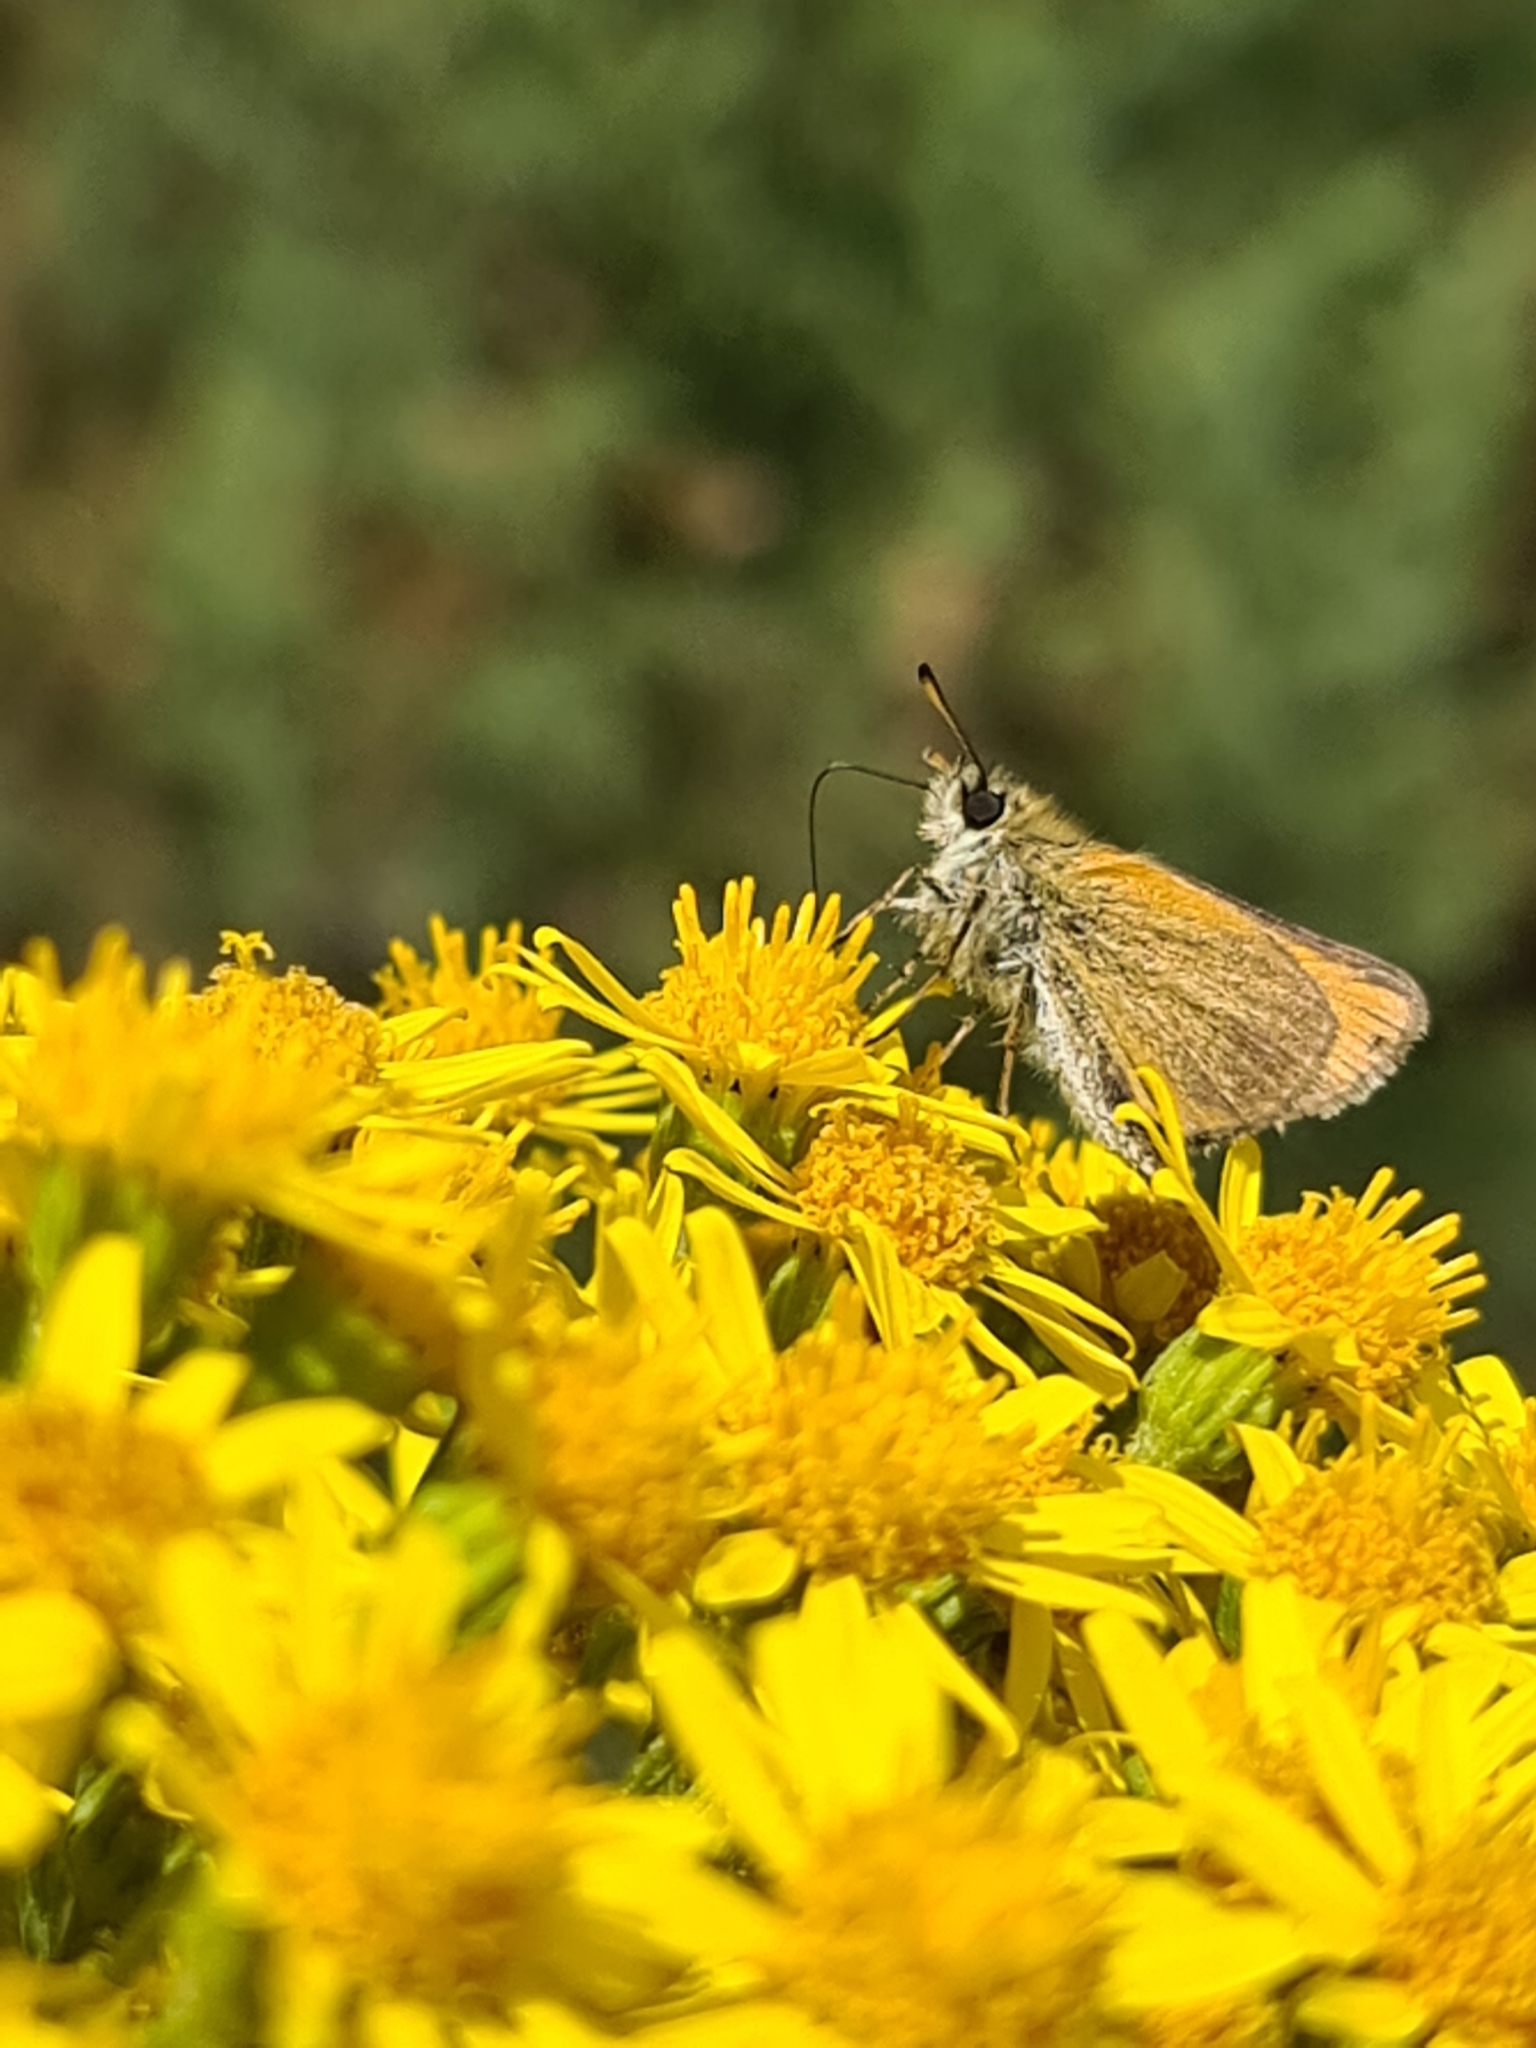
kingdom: Animalia
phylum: Arthropoda
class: Insecta
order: Lepidoptera
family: Hesperiidae
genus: Thymelicus
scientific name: Thymelicus lineola
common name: Essex skipper
